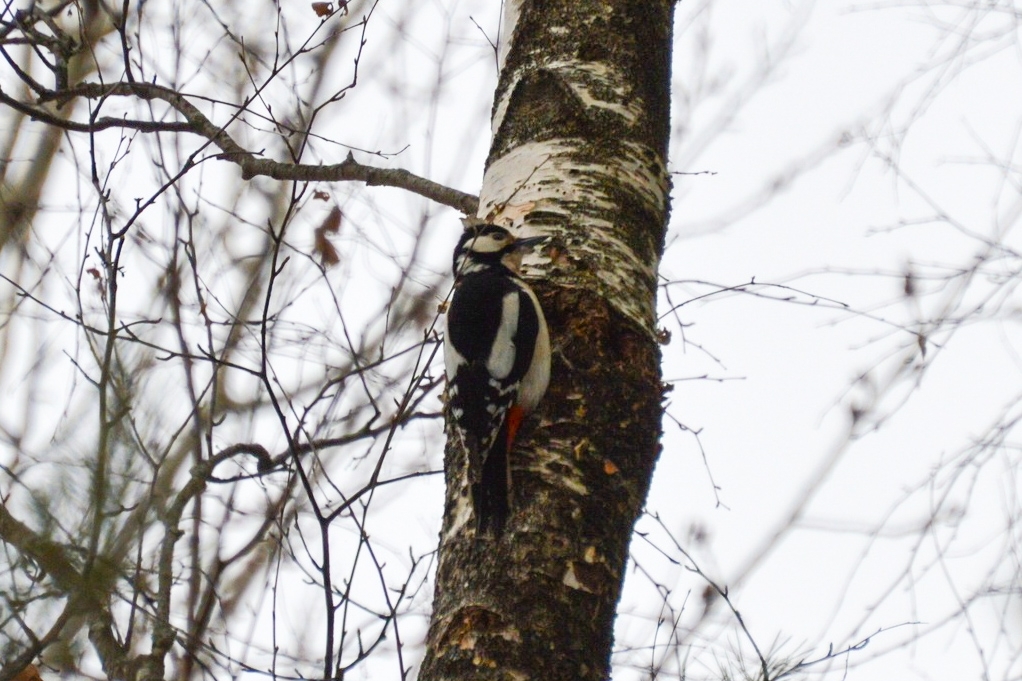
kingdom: Animalia
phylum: Chordata
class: Aves
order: Piciformes
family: Picidae
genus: Dendrocopos
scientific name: Dendrocopos major
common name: Great spotted woodpecker
